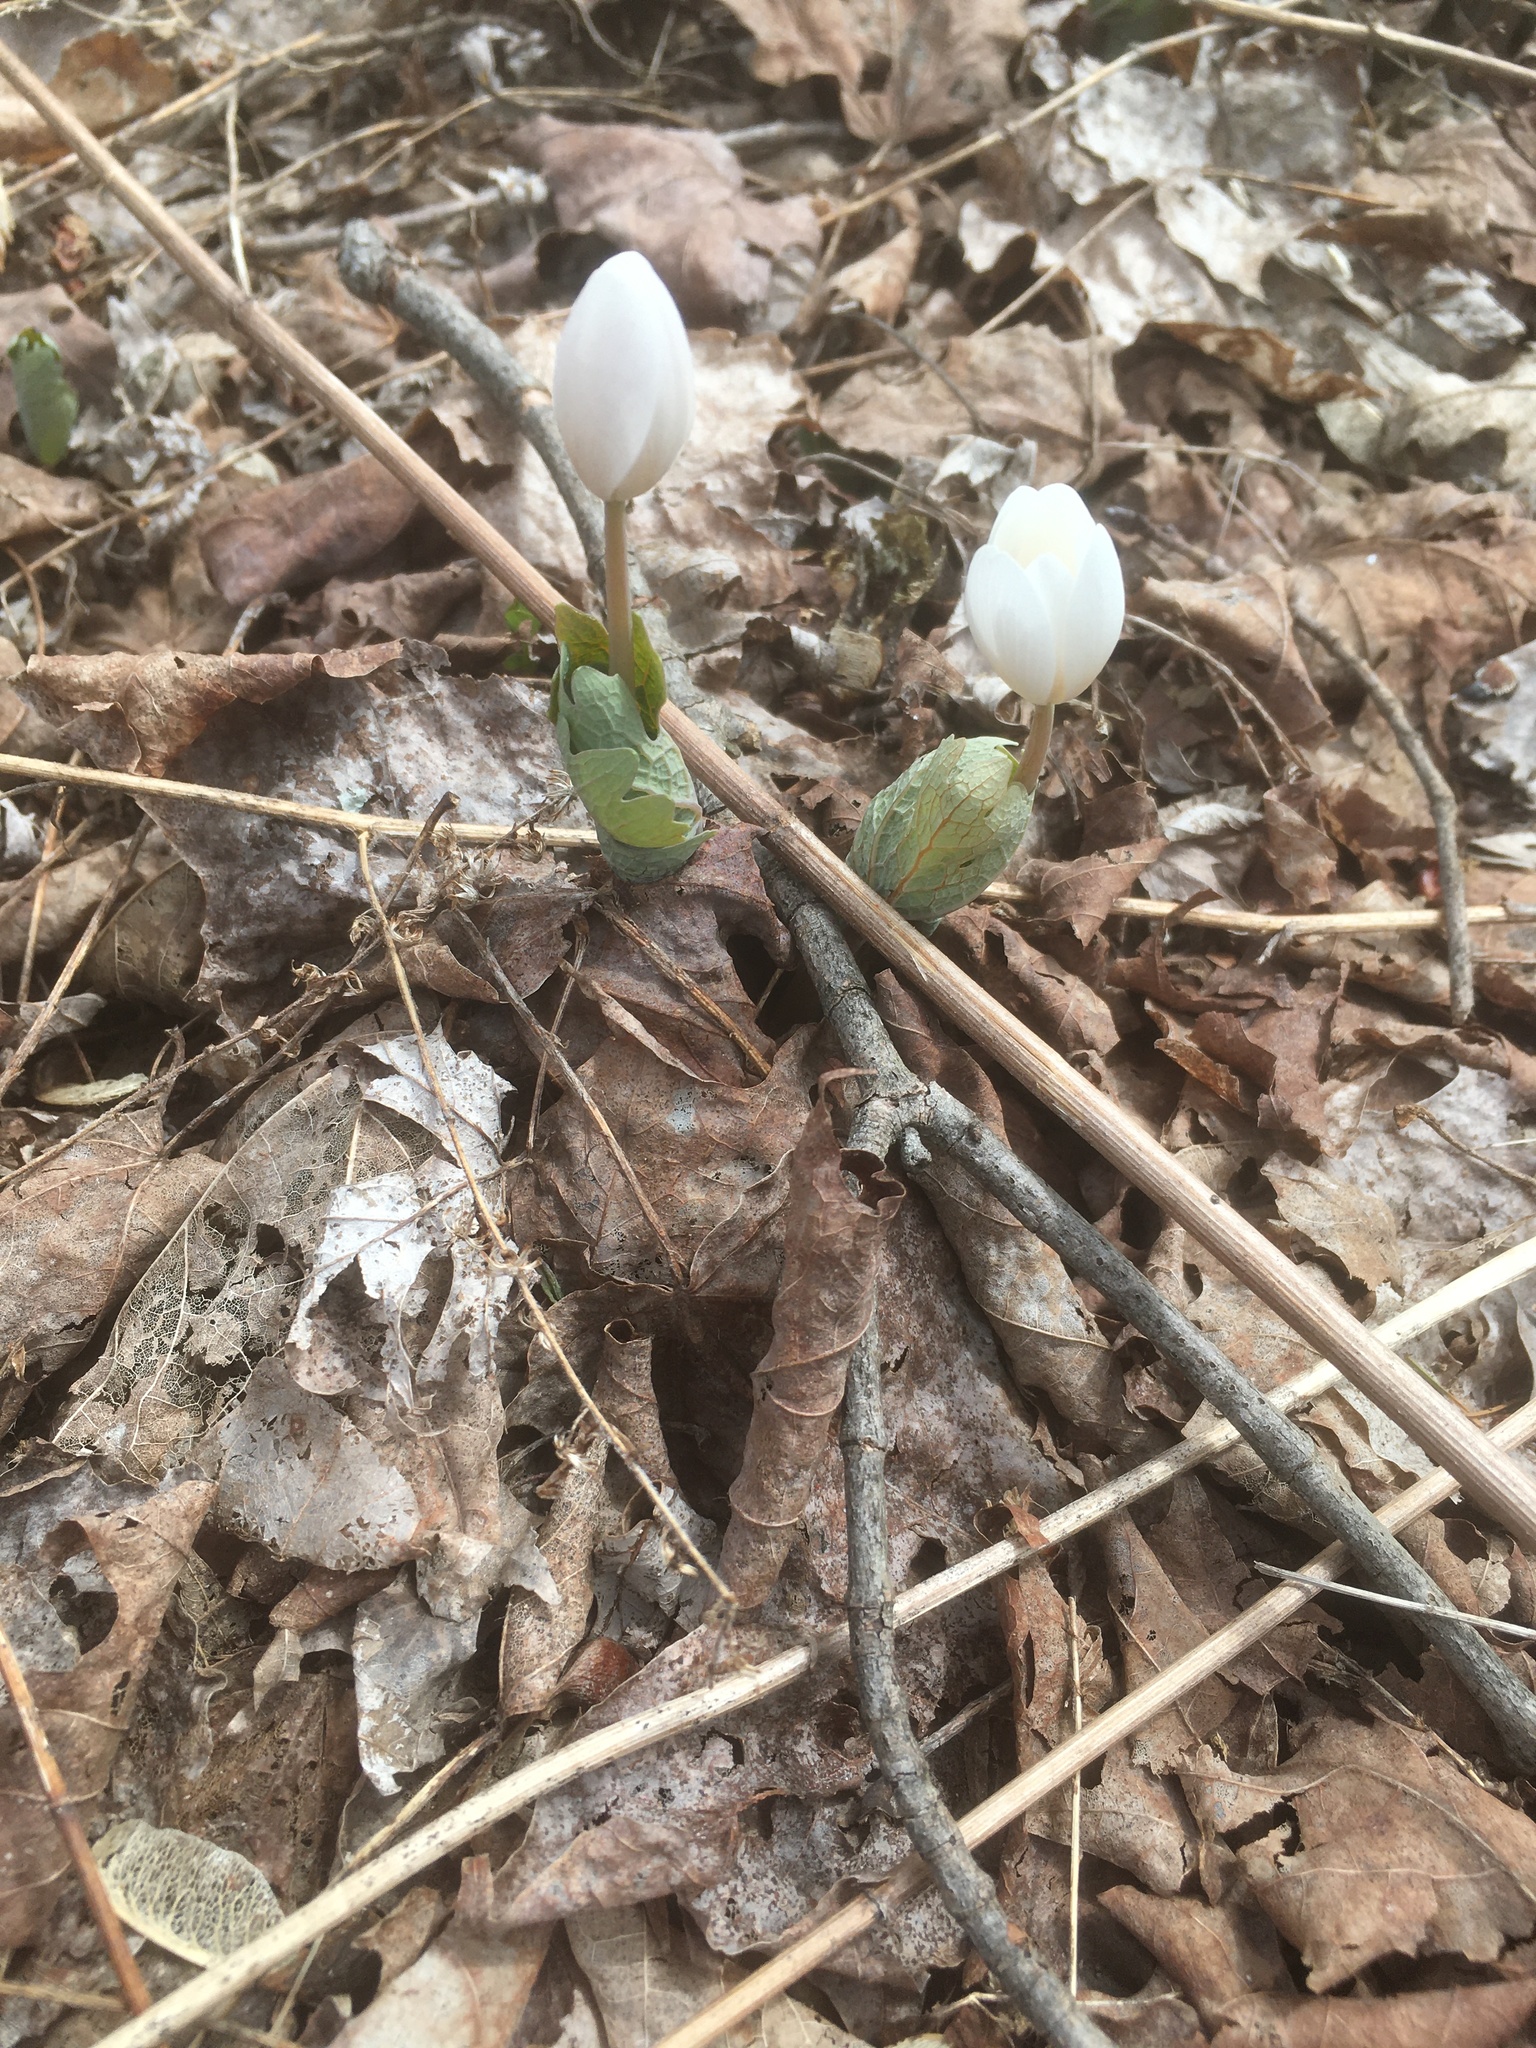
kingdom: Plantae
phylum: Tracheophyta
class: Magnoliopsida
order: Ranunculales
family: Papaveraceae
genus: Sanguinaria
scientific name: Sanguinaria canadensis
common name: Bloodroot
